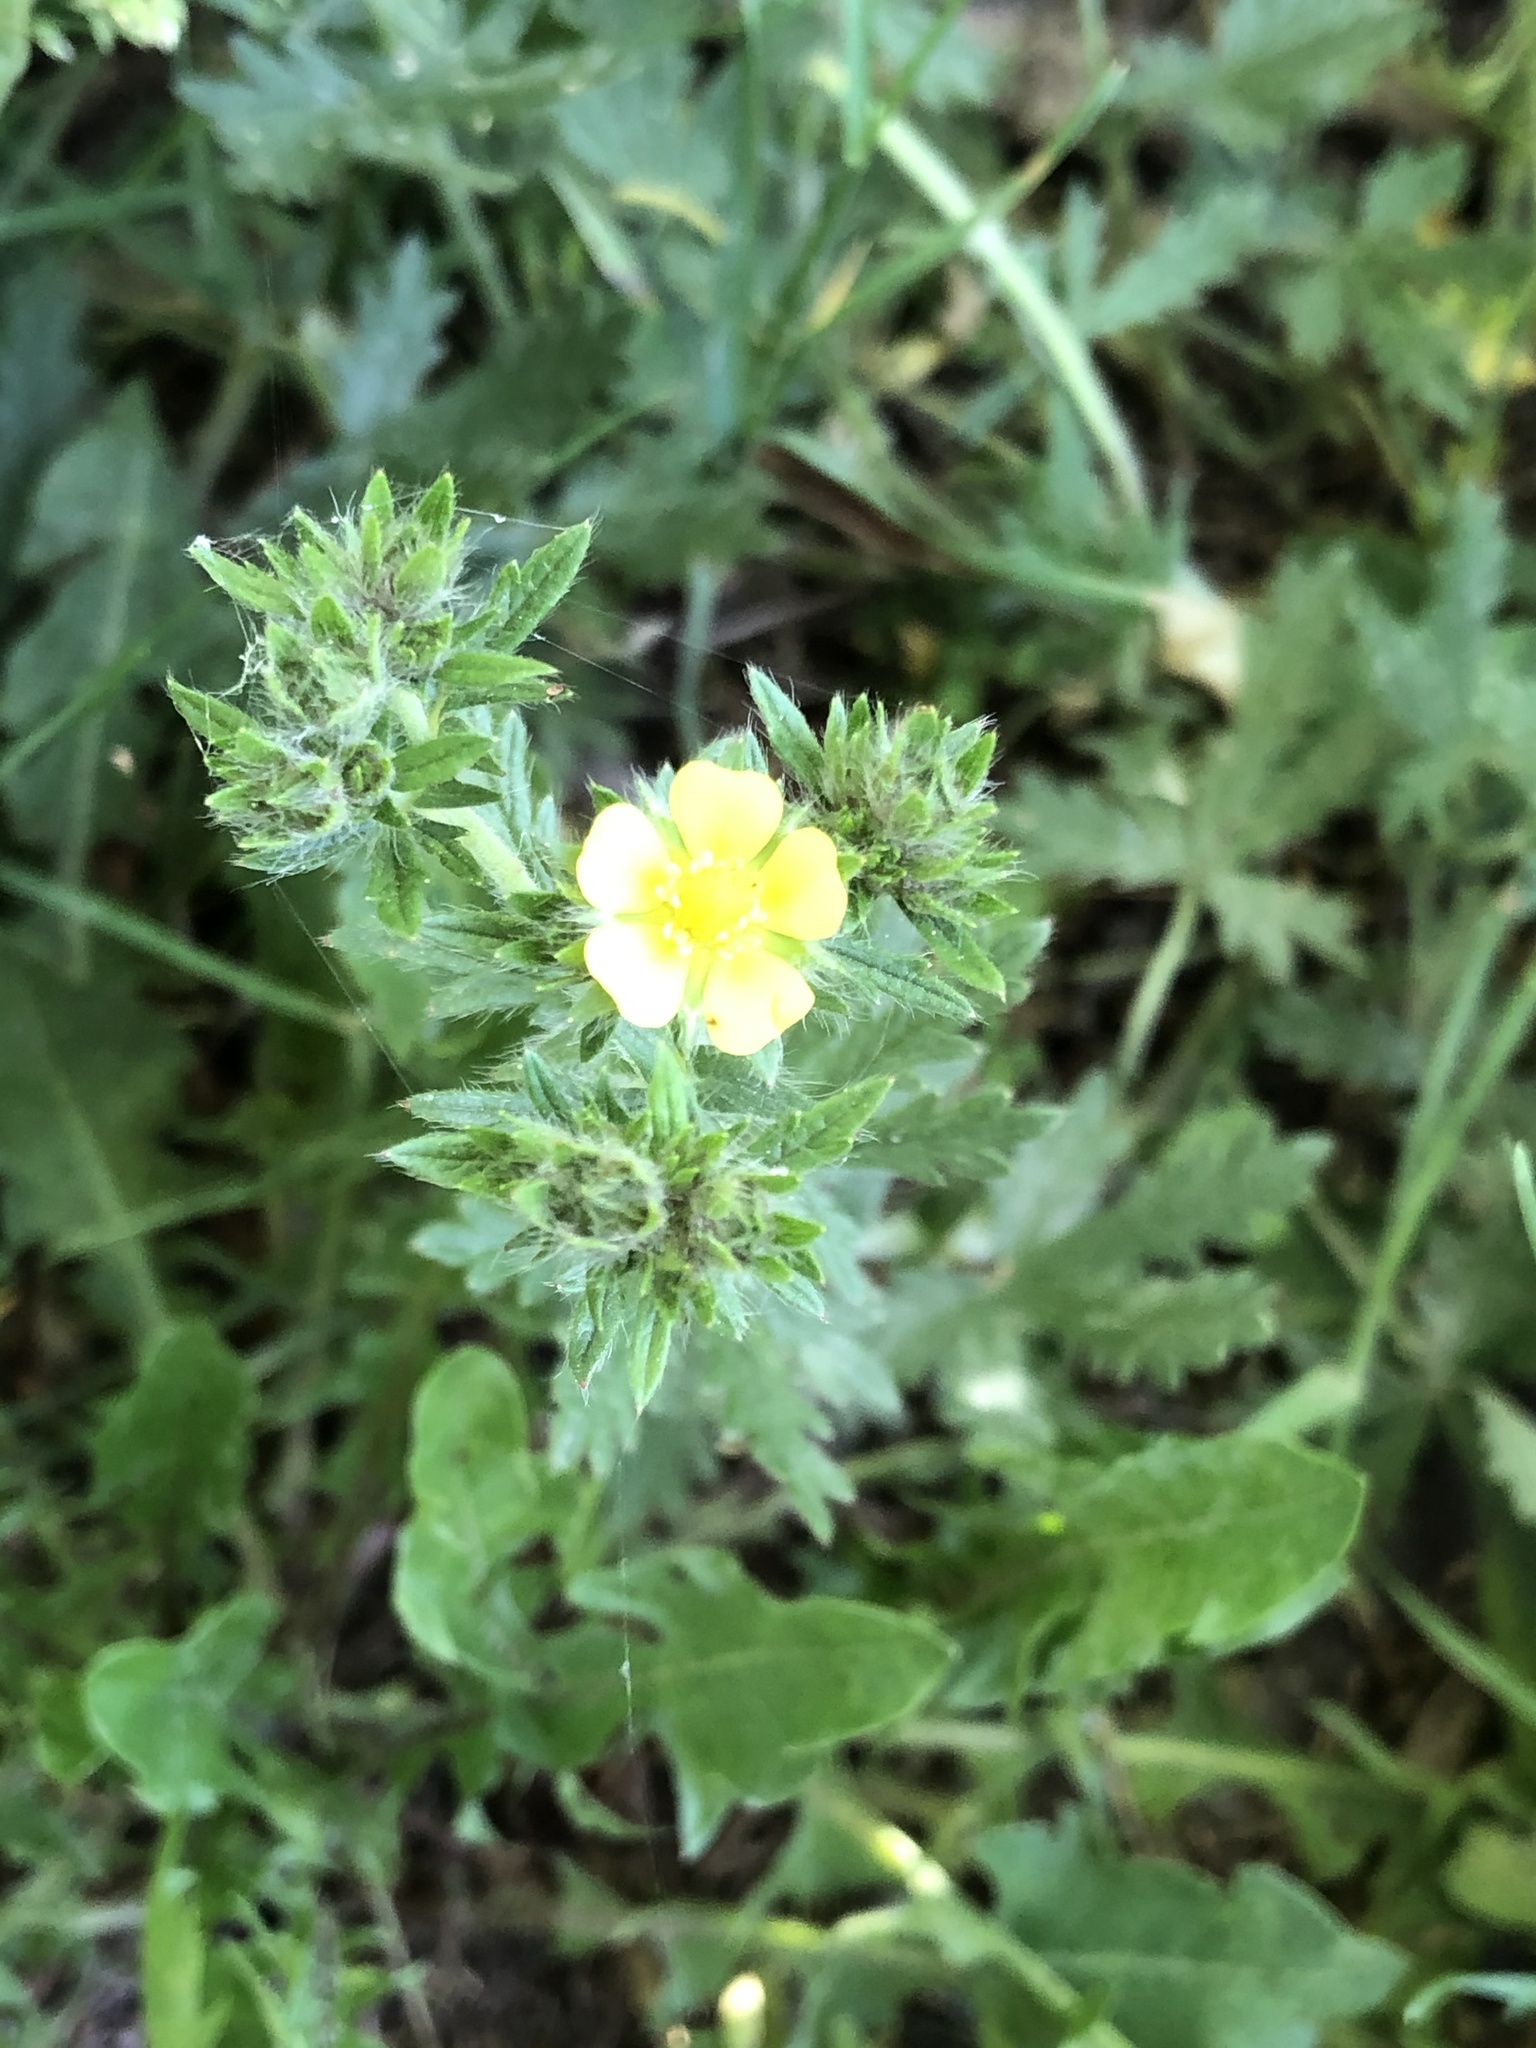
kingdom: Plantae
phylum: Tracheophyta
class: Magnoliopsida
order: Rosales
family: Rosaceae
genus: Potentilla
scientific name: Potentilla recta
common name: Sulphur cinquefoil
